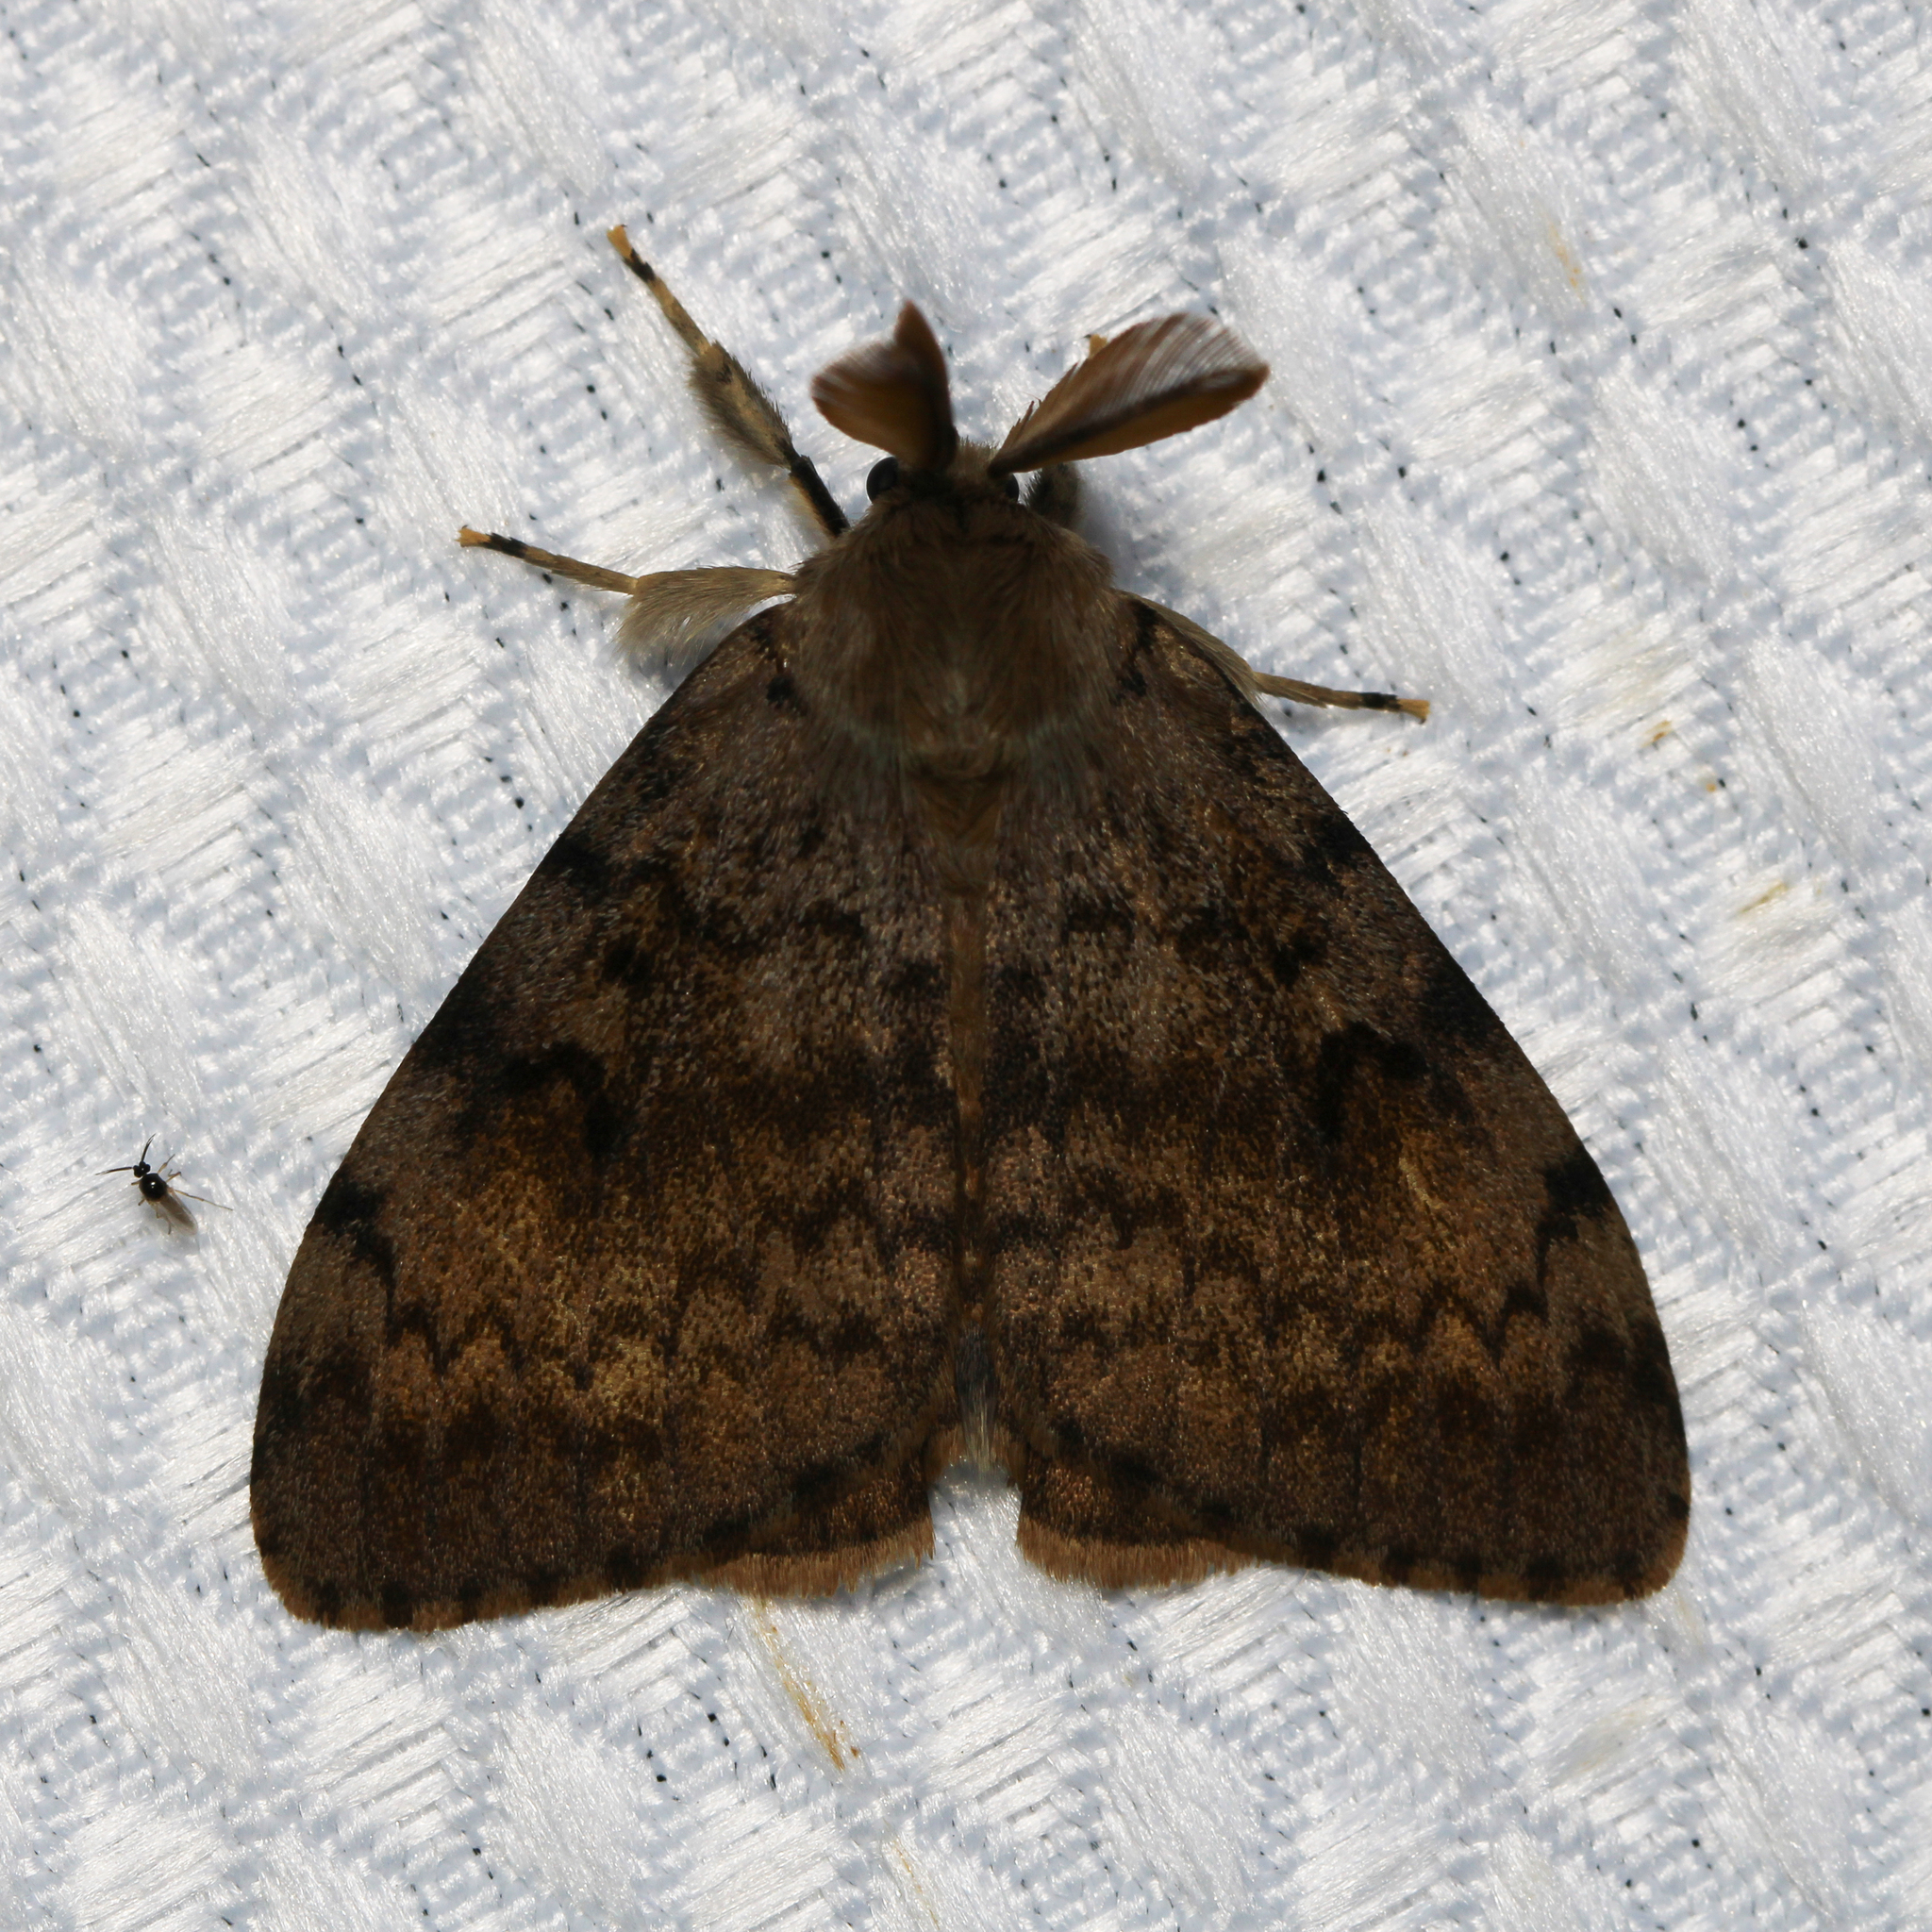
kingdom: Animalia
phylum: Arthropoda
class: Insecta
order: Lepidoptera
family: Erebidae
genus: Lymantria
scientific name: Lymantria dispar
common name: Gypsy moth
